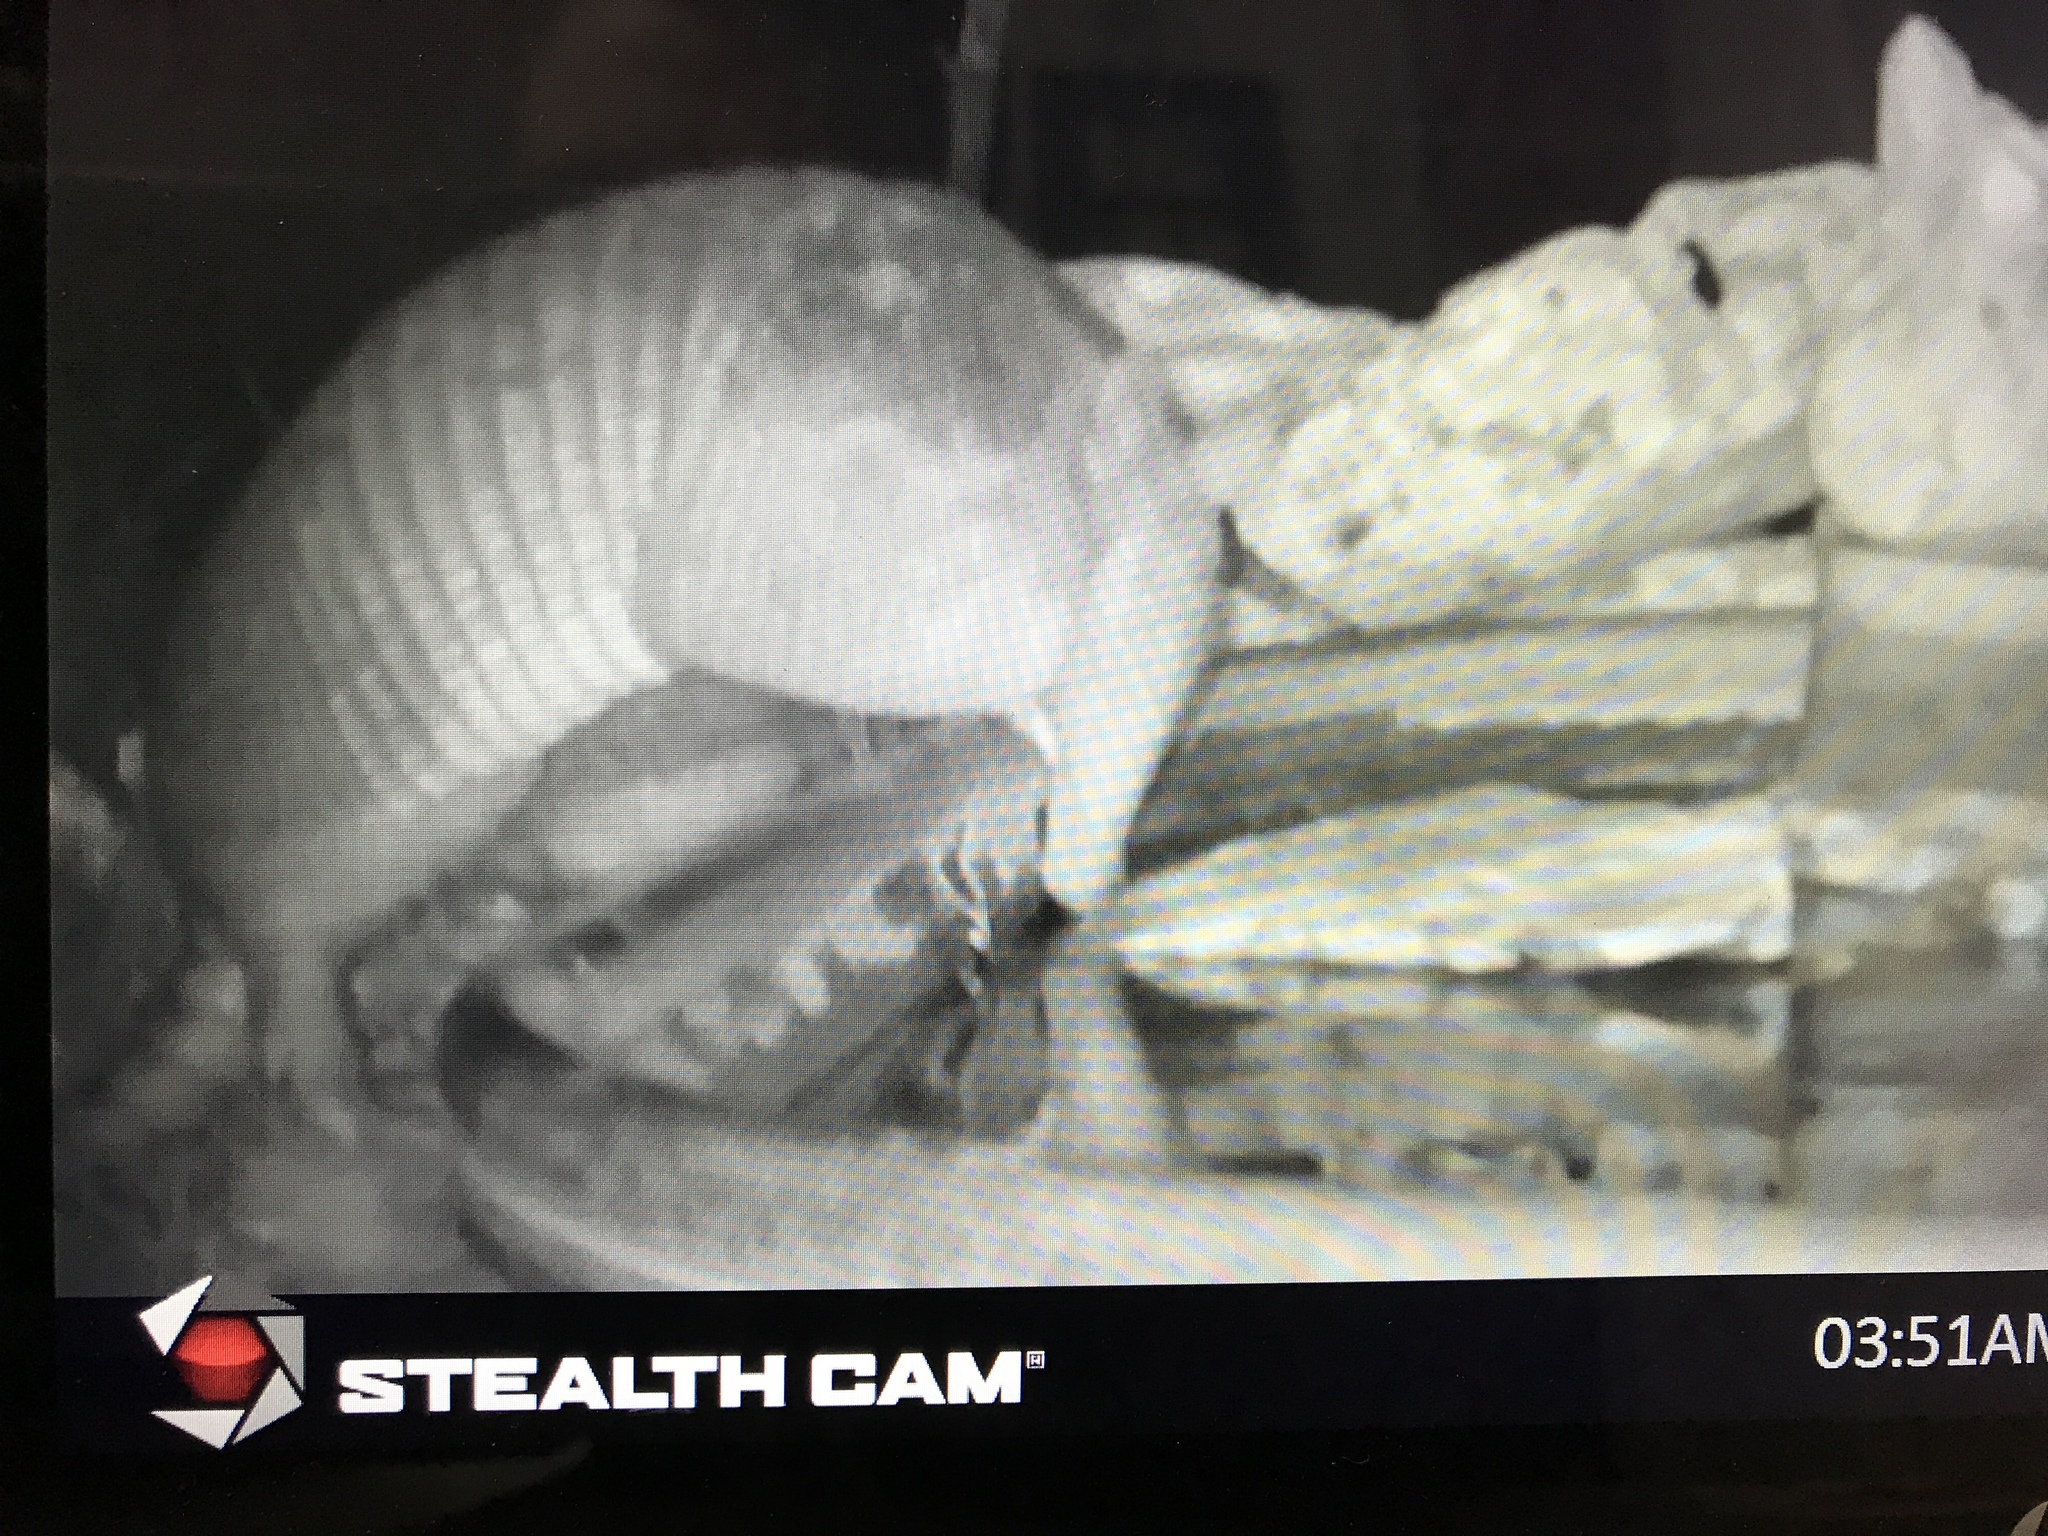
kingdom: Animalia
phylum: Chordata
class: Mammalia
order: Cingulata
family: Dasypodidae
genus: Dasypus
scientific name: Dasypus novemcinctus
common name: Nine-banded armadillo
